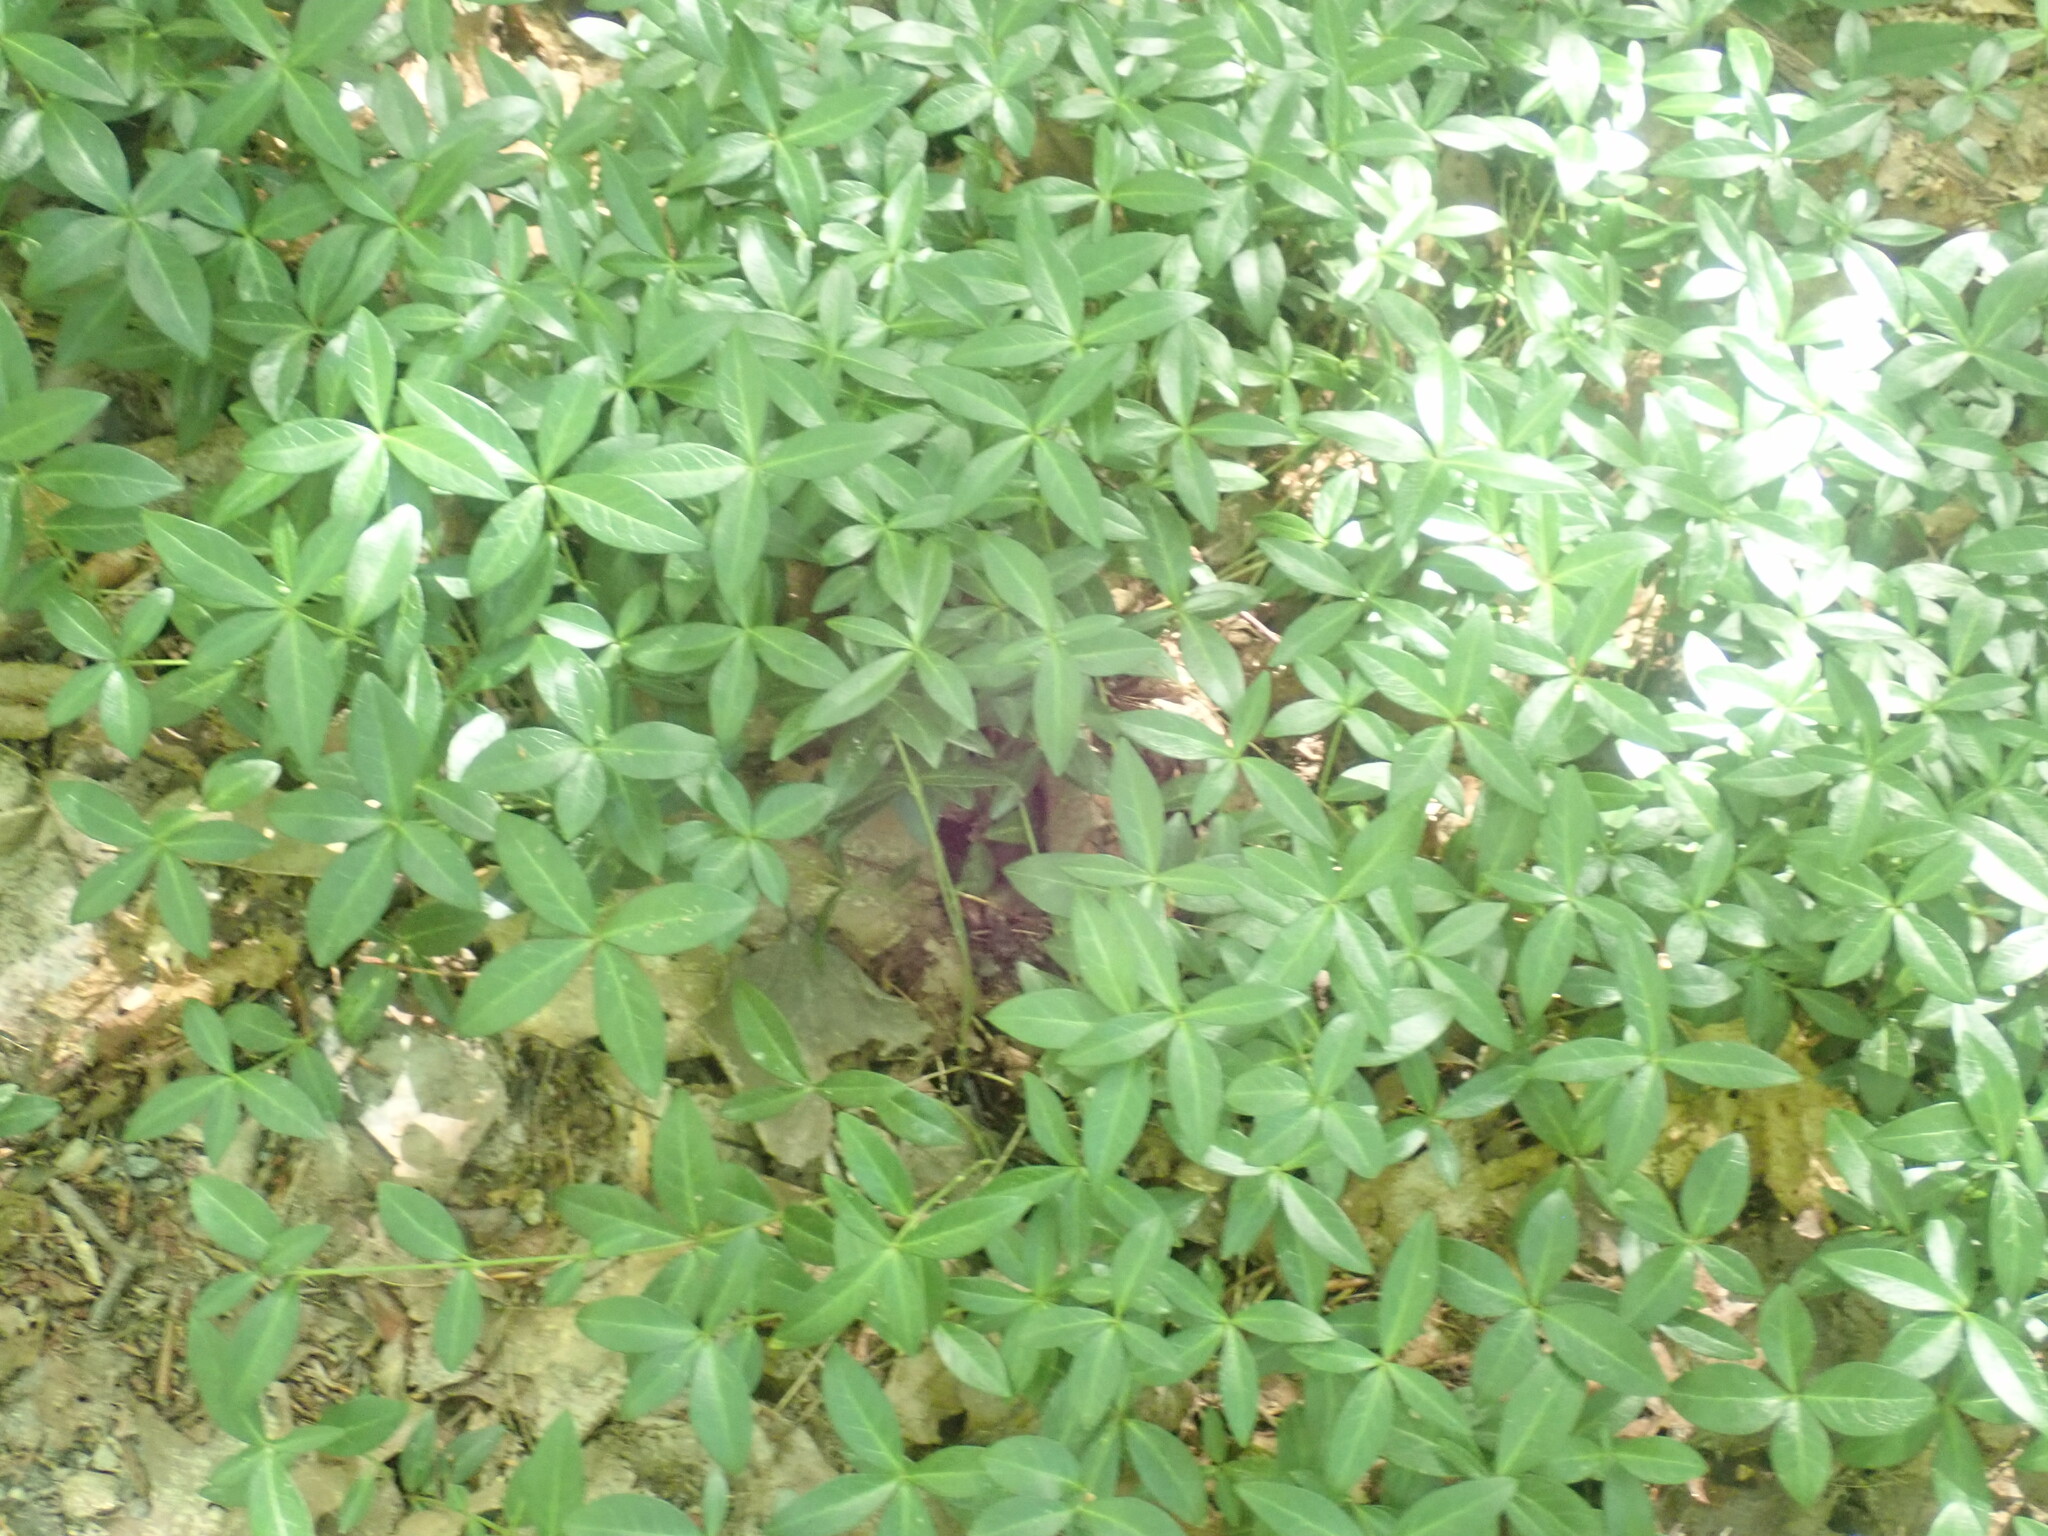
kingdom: Plantae
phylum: Tracheophyta
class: Magnoliopsida
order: Gentianales
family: Apocynaceae
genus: Vinca
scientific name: Vinca minor
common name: Lesser periwinkle
